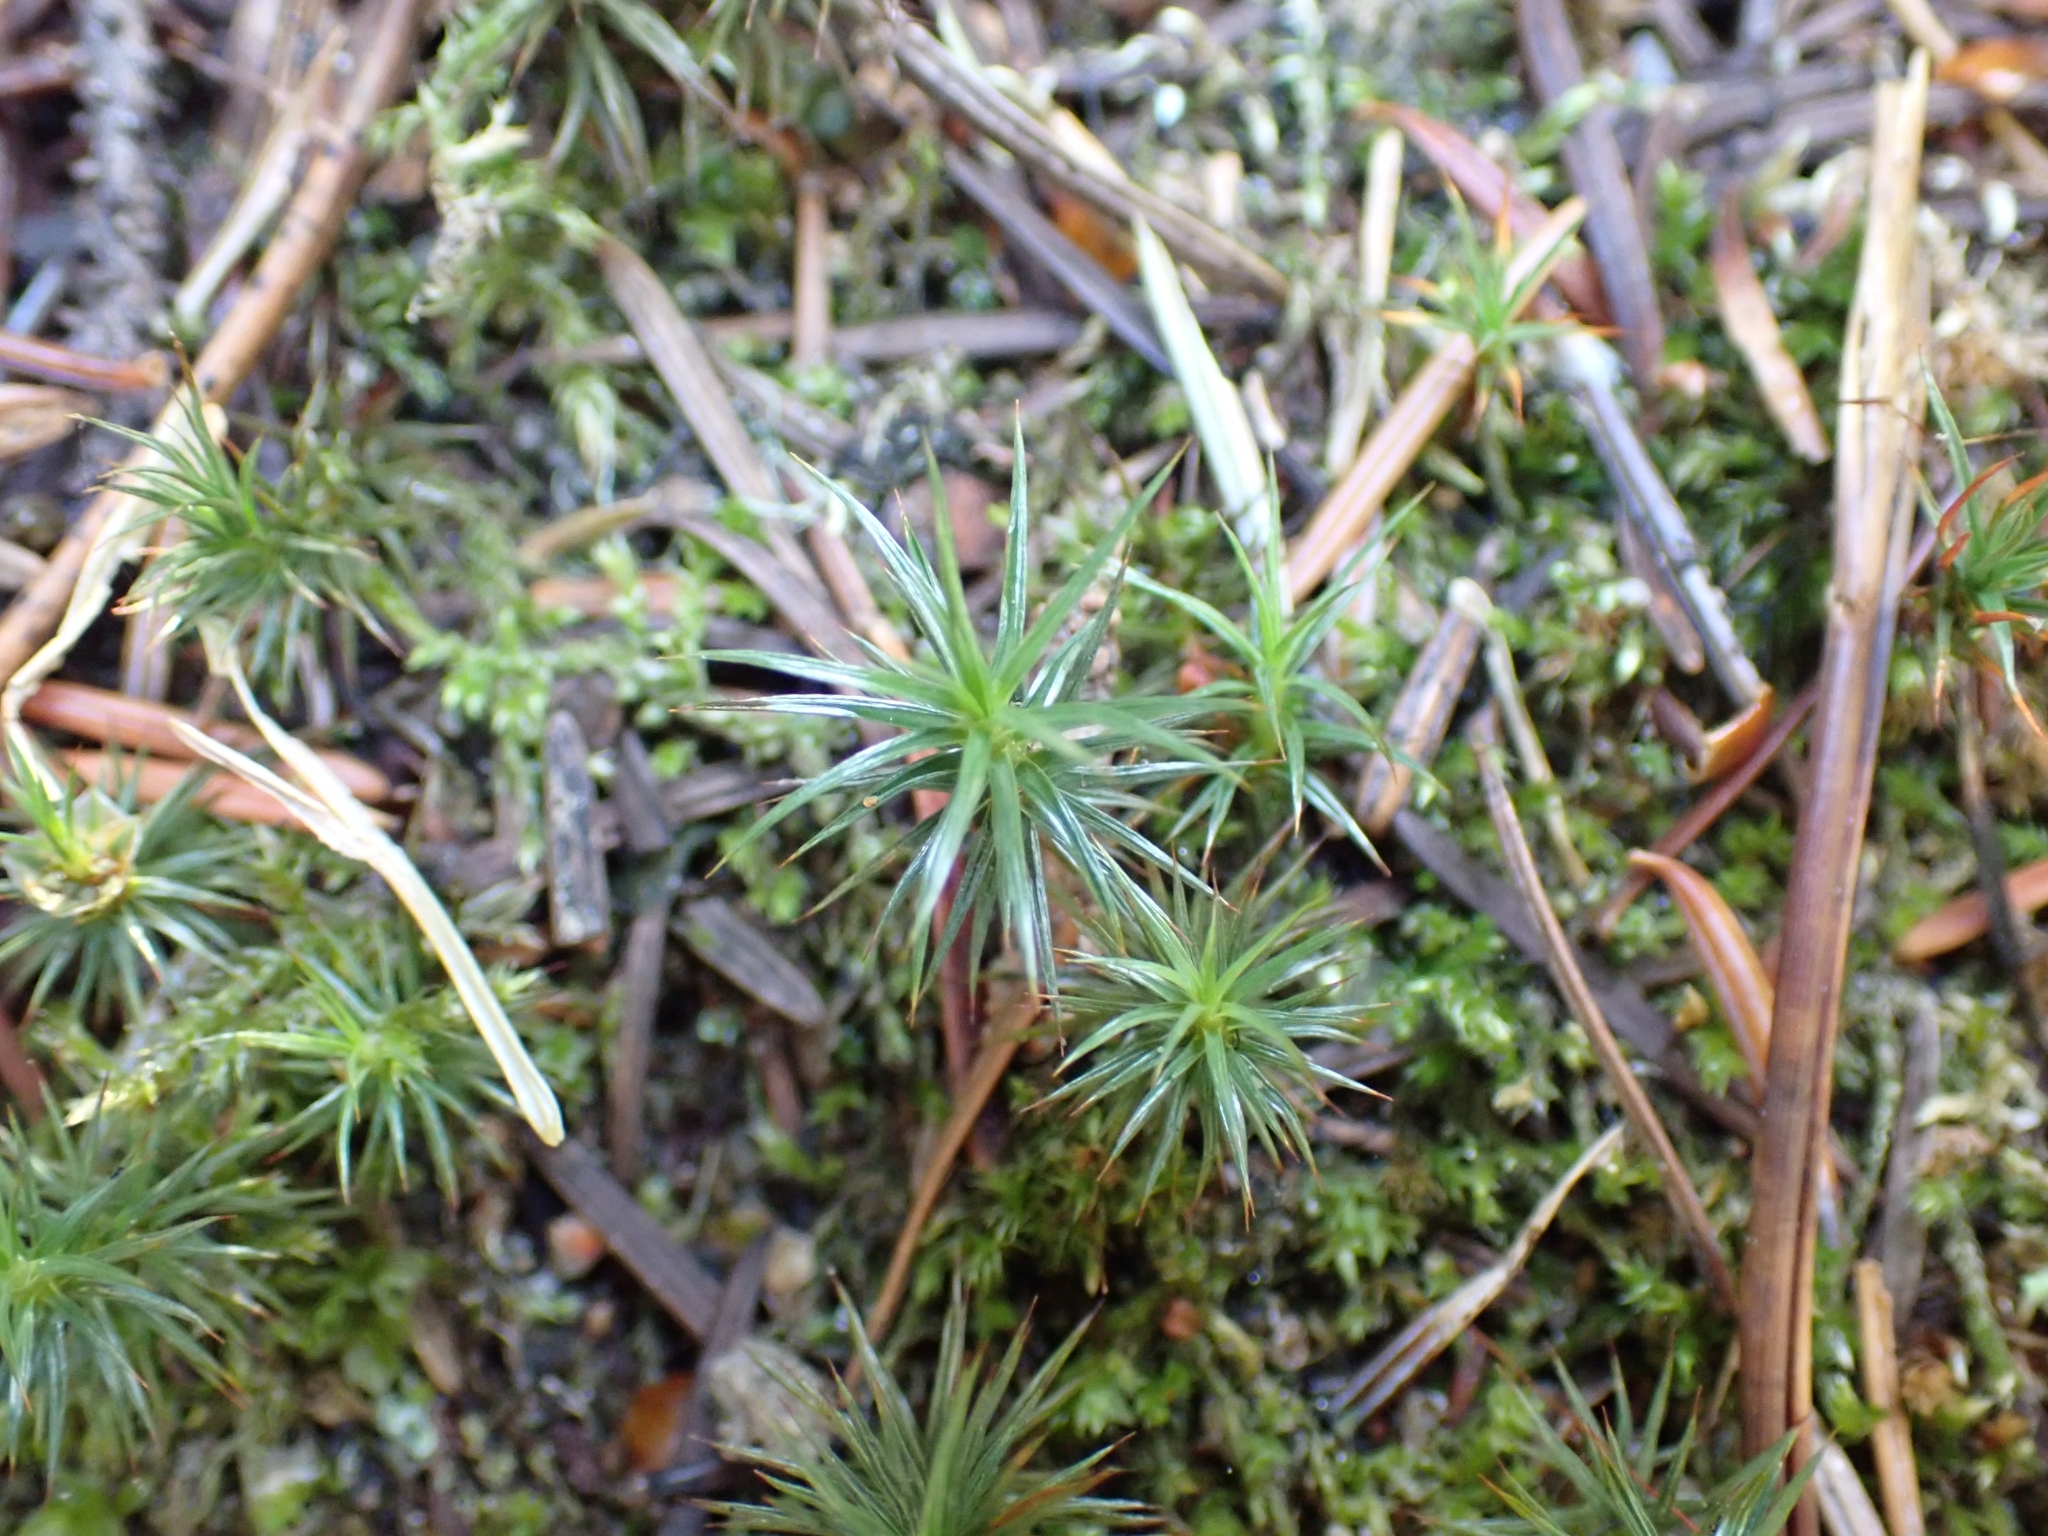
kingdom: Plantae
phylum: Bryophyta
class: Polytrichopsida
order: Polytrichales
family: Polytrichaceae
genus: Polytrichum
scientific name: Polytrichum juniperinum
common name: Juniper haircap moss
